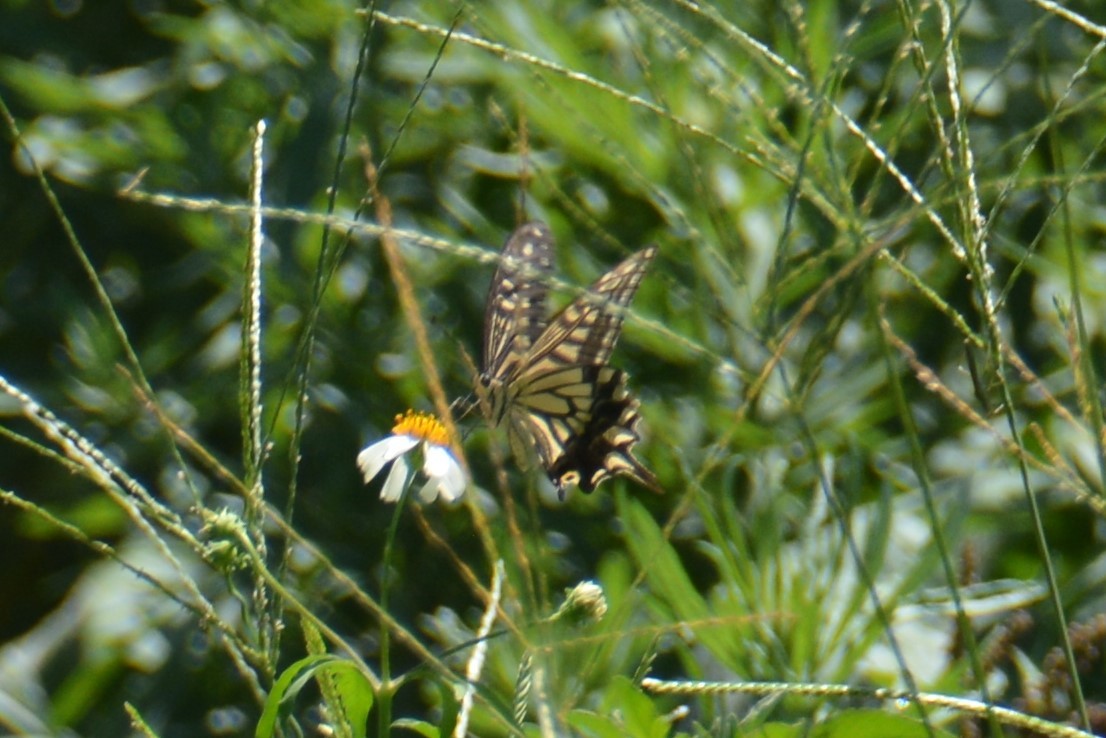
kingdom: Animalia
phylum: Arthropoda
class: Insecta
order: Lepidoptera
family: Papilionidae
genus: Papilio
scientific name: Papilio xuthus
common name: Asian swallowtail
